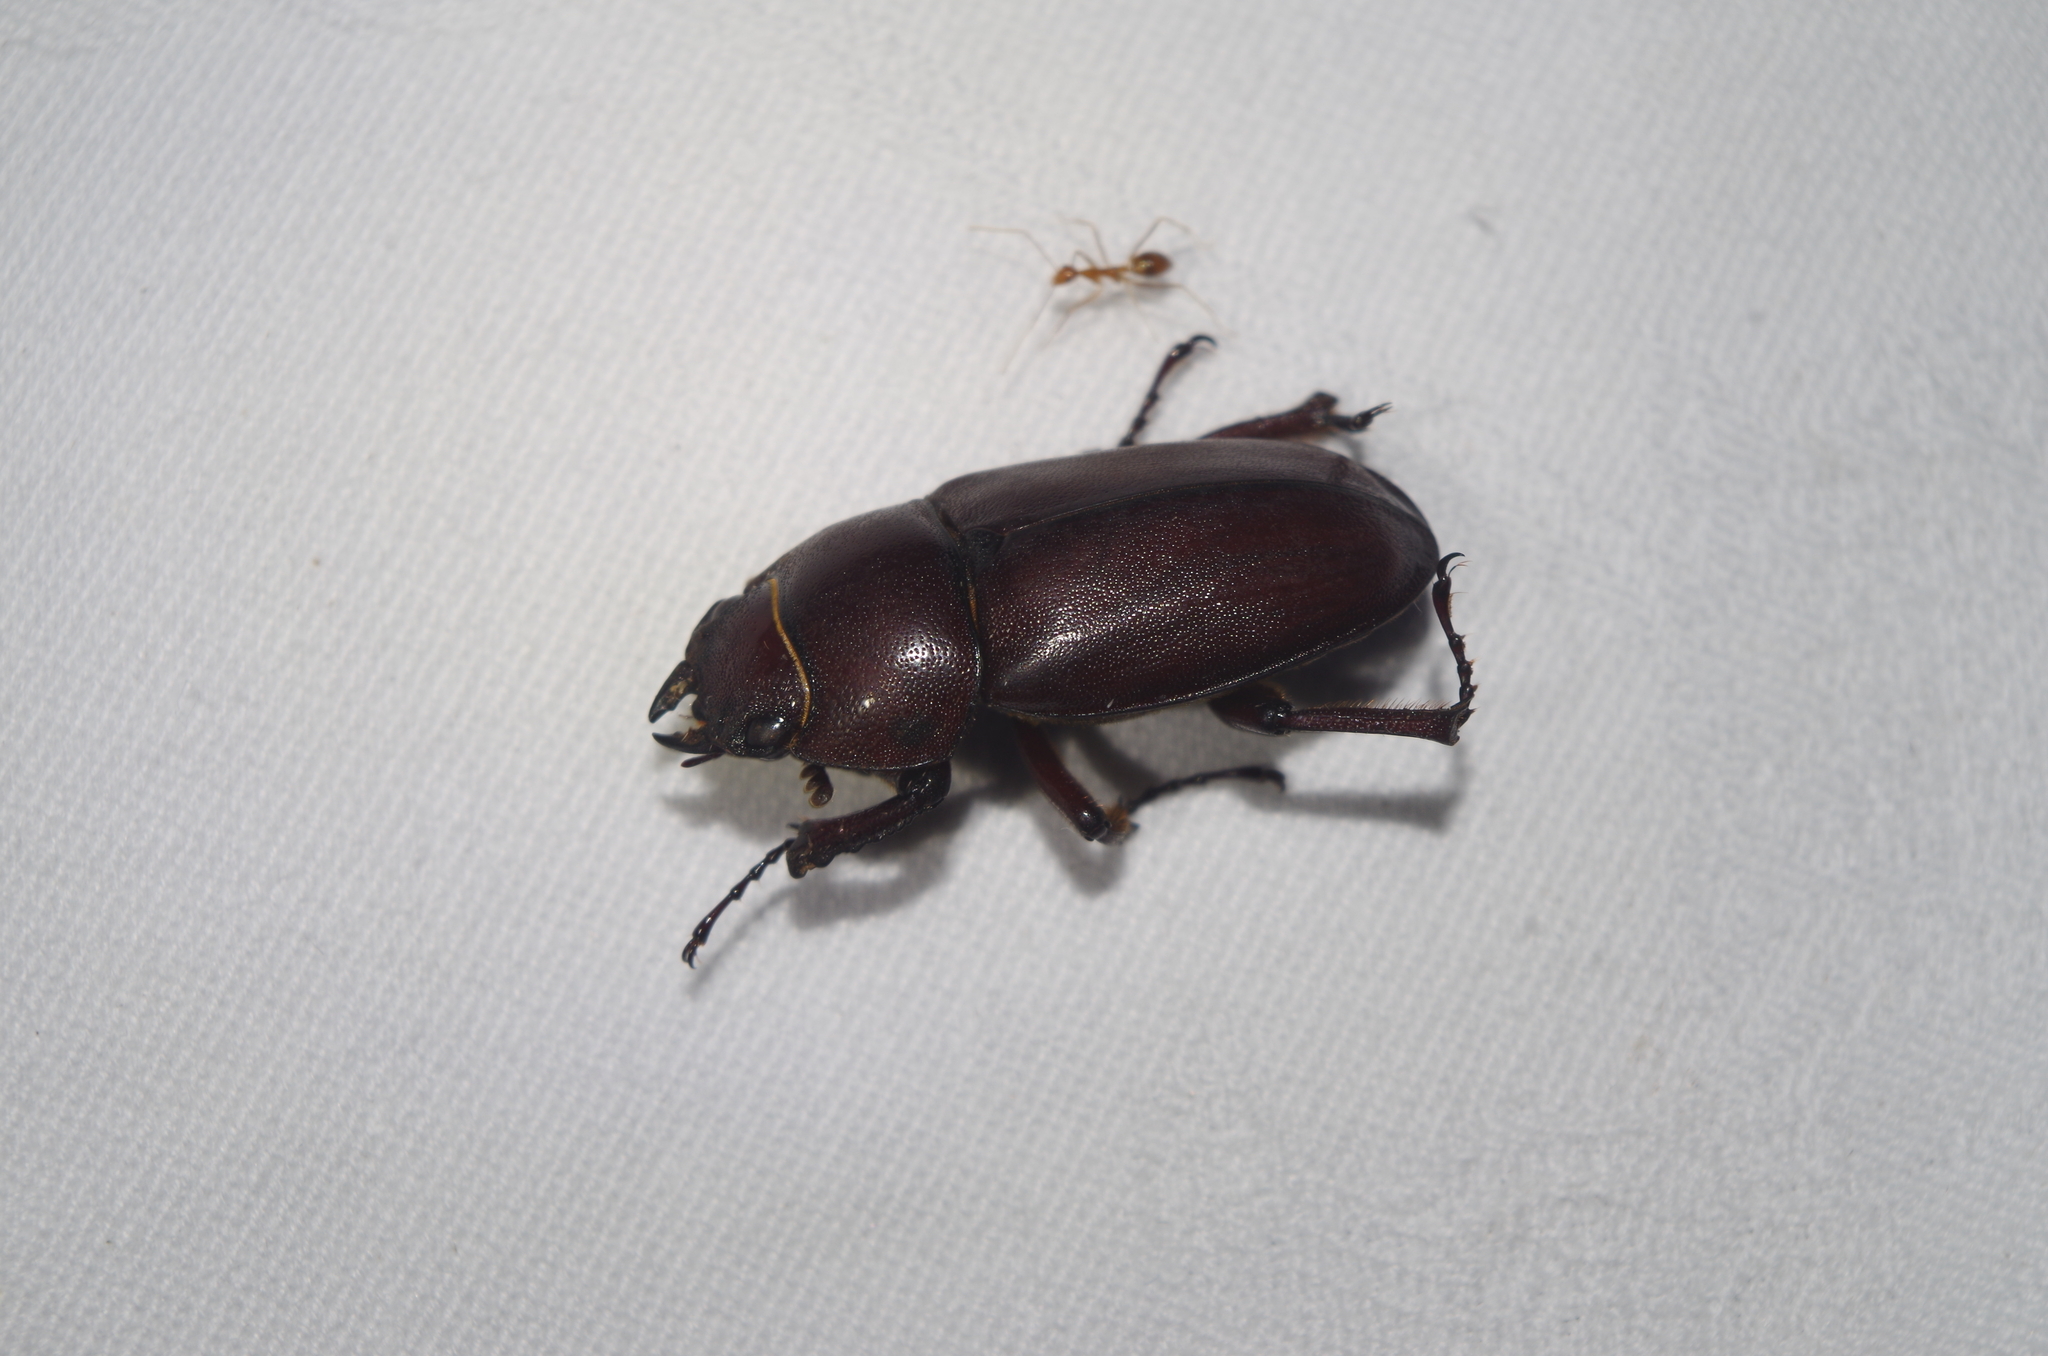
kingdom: Animalia
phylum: Arthropoda
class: Insecta
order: Coleoptera
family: Lucanidae
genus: Prosopocoilus
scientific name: Prosopocoilus dissimilis
